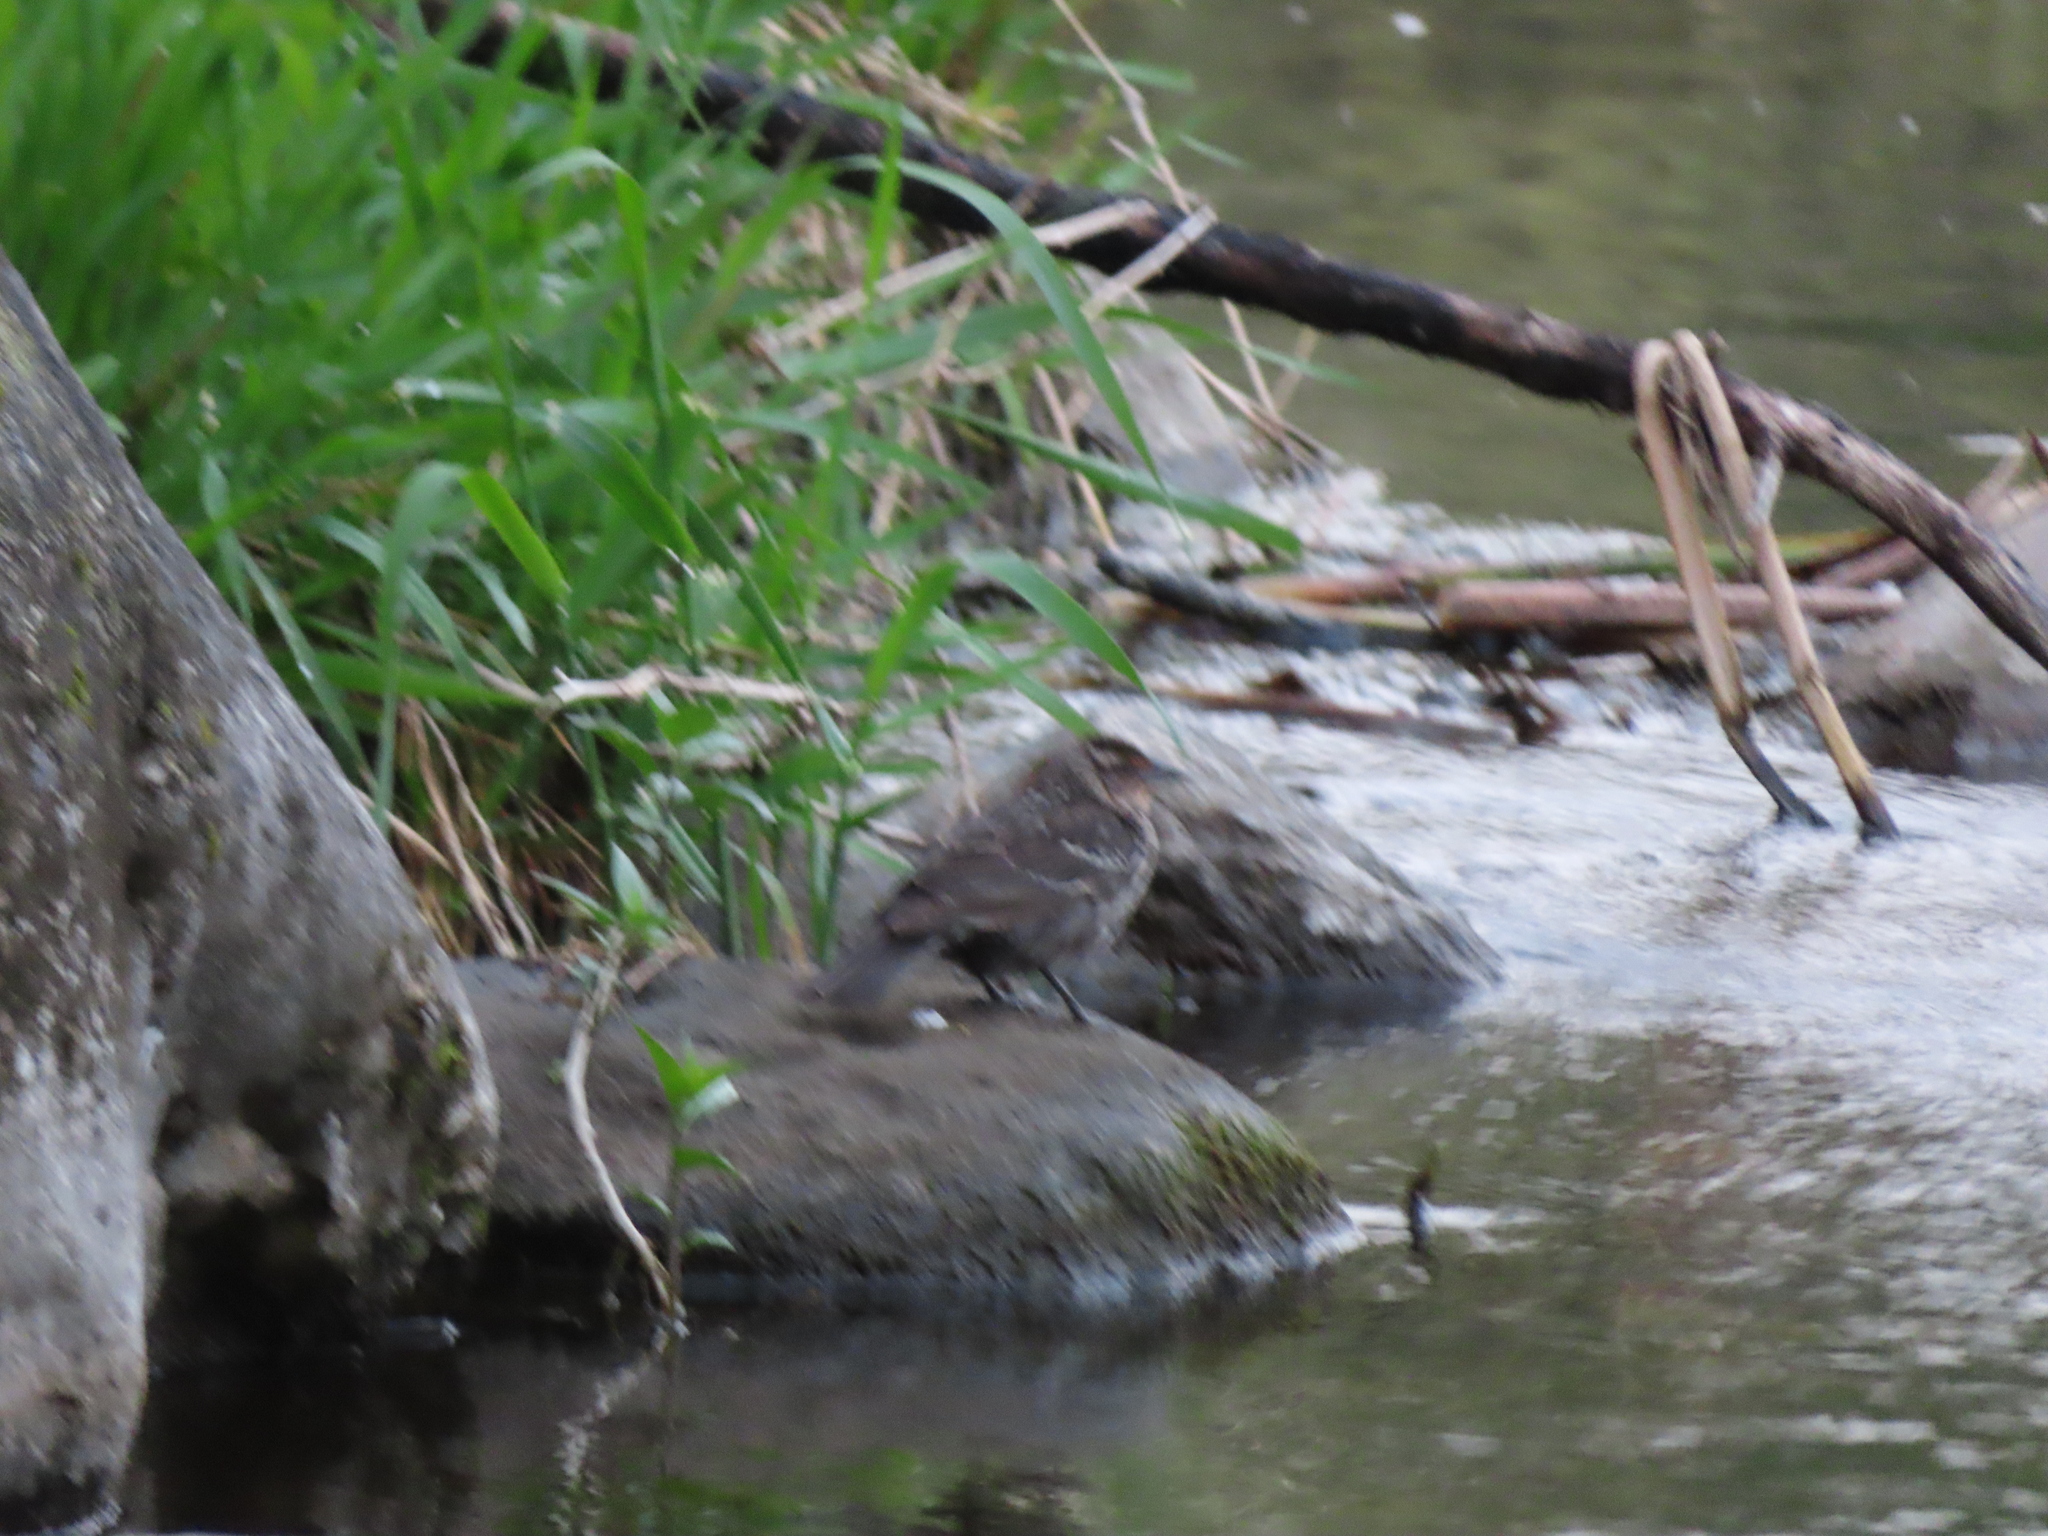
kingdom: Animalia
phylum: Chordata
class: Aves
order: Passeriformes
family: Icteridae
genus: Agelaius
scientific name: Agelaius phoeniceus
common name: Red-winged blackbird
